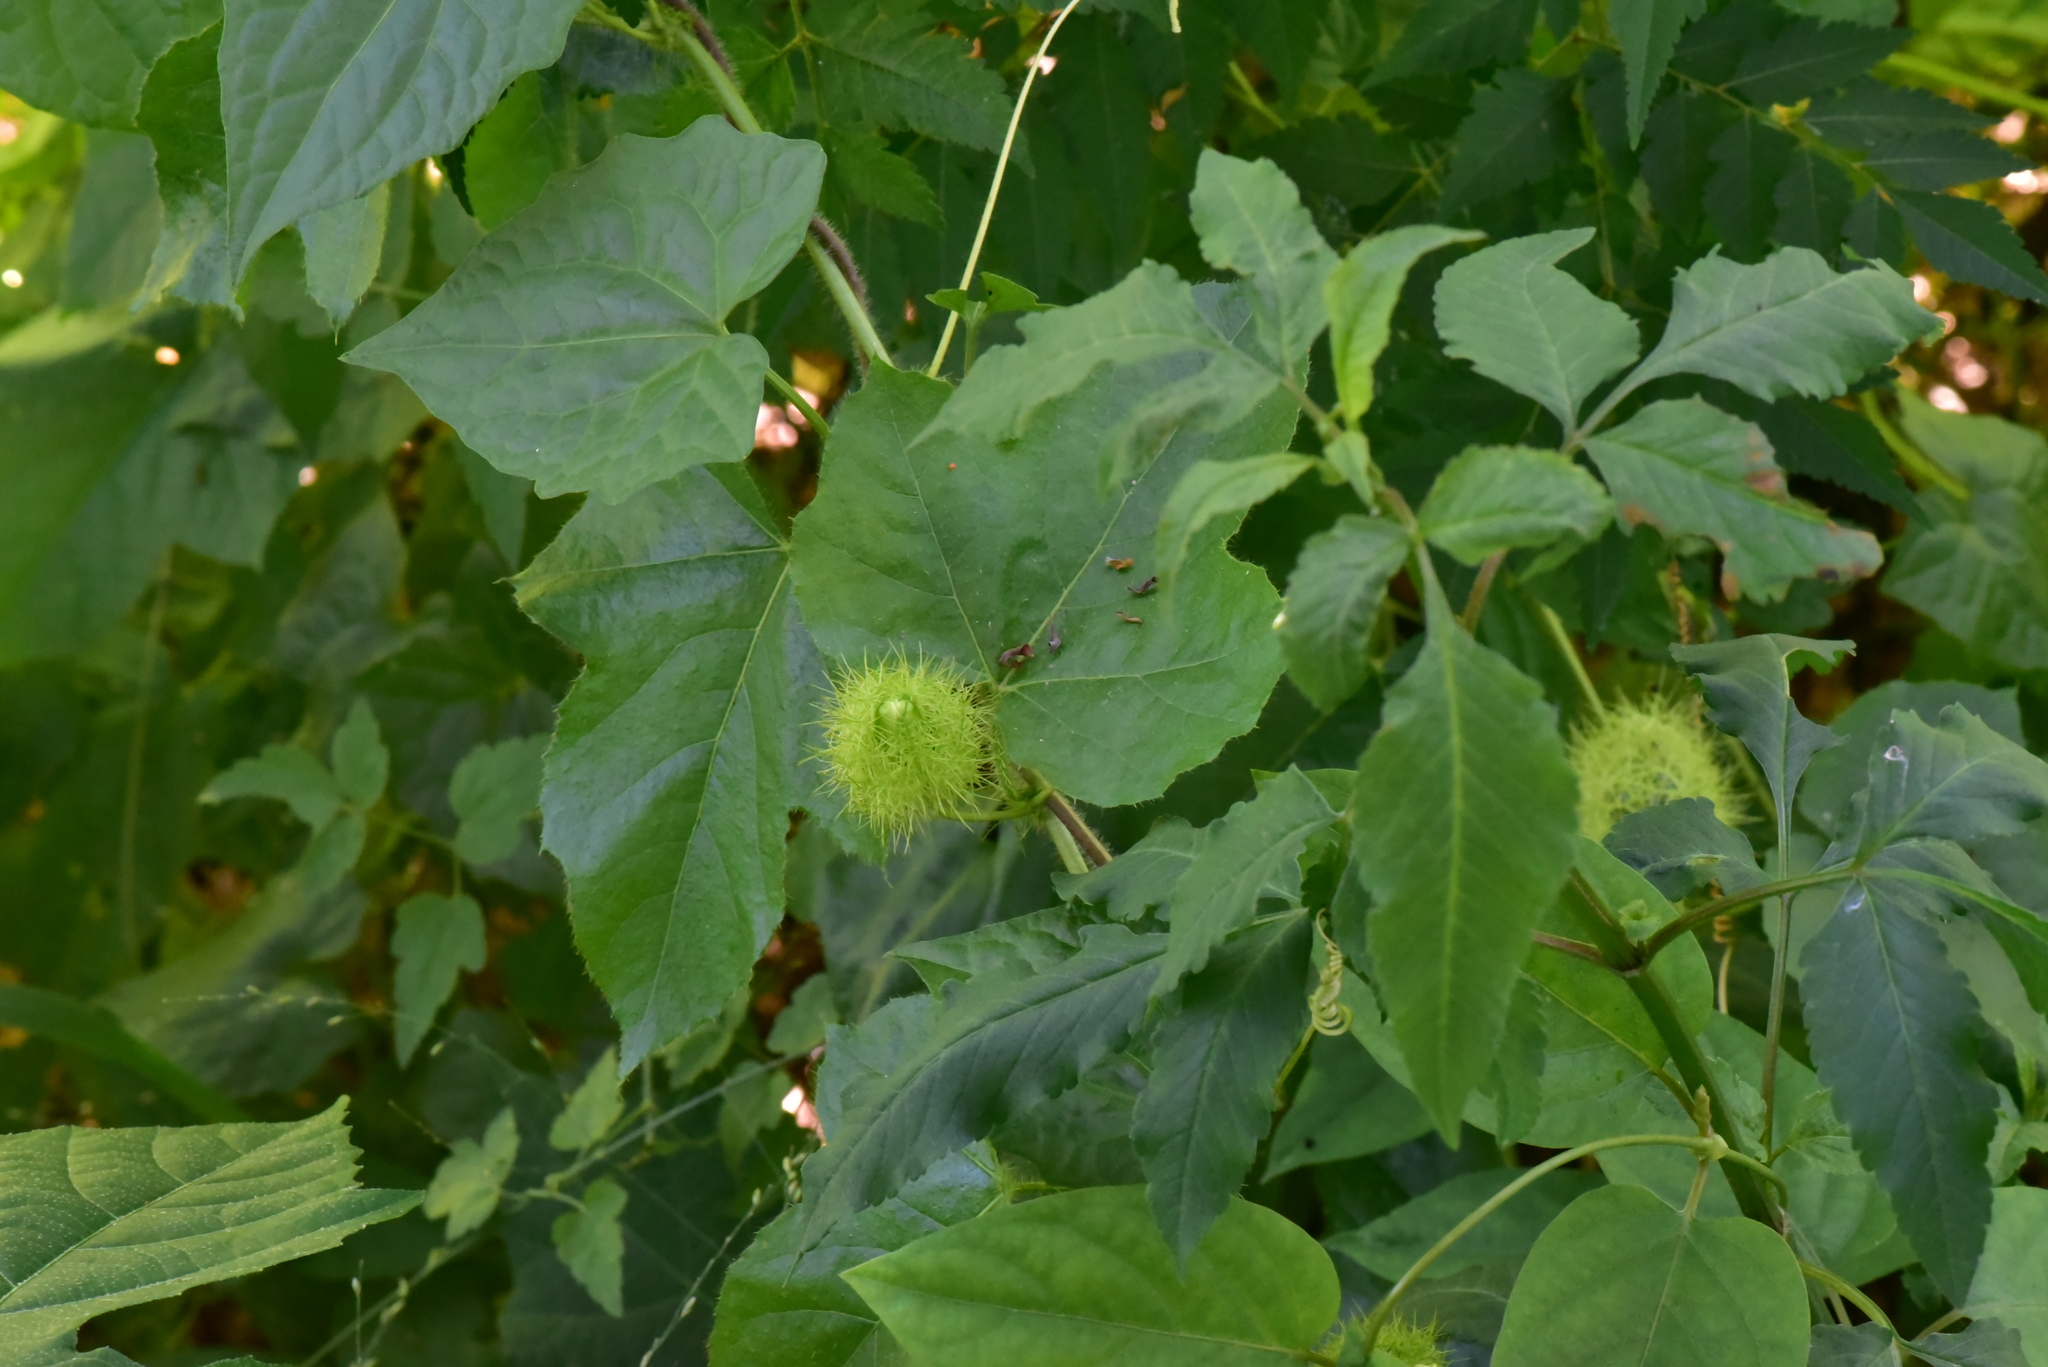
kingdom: Plantae
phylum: Tracheophyta
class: Magnoliopsida
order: Malpighiales
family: Passifloraceae
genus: Passiflora
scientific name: Passiflora vesicaria
